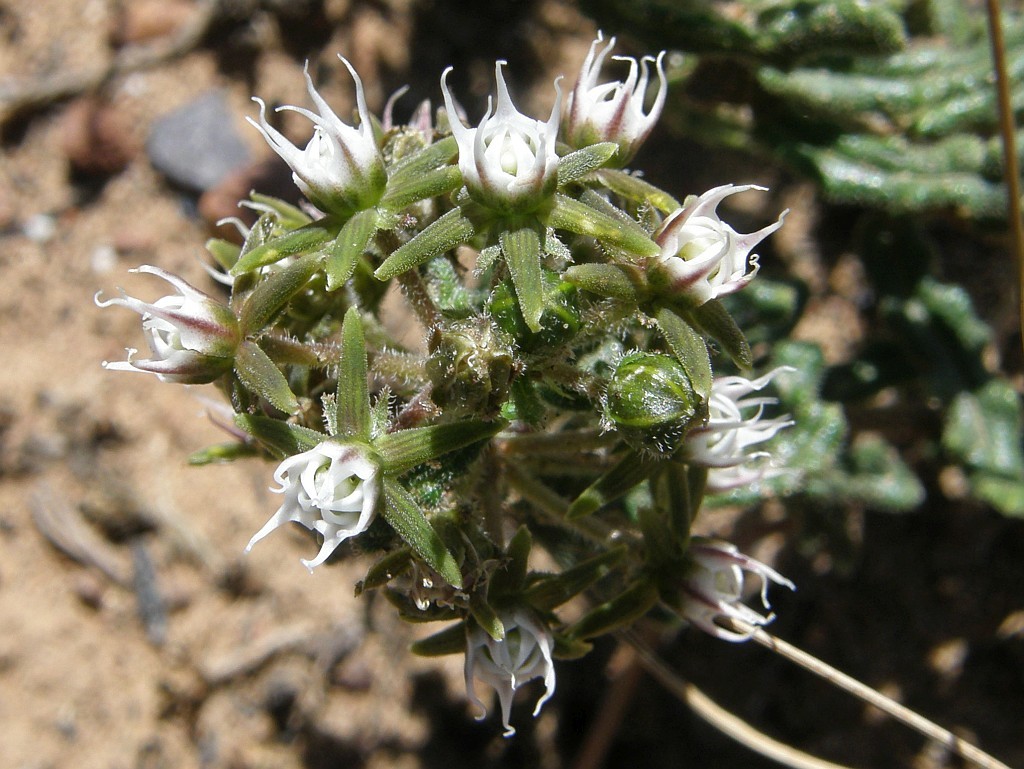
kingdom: Plantae
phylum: Tracheophyta
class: Magnoliopsida
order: Gentianales
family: Apocynaceae
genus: Aspidoglossum
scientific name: Aspidoglossum heterophyllum
